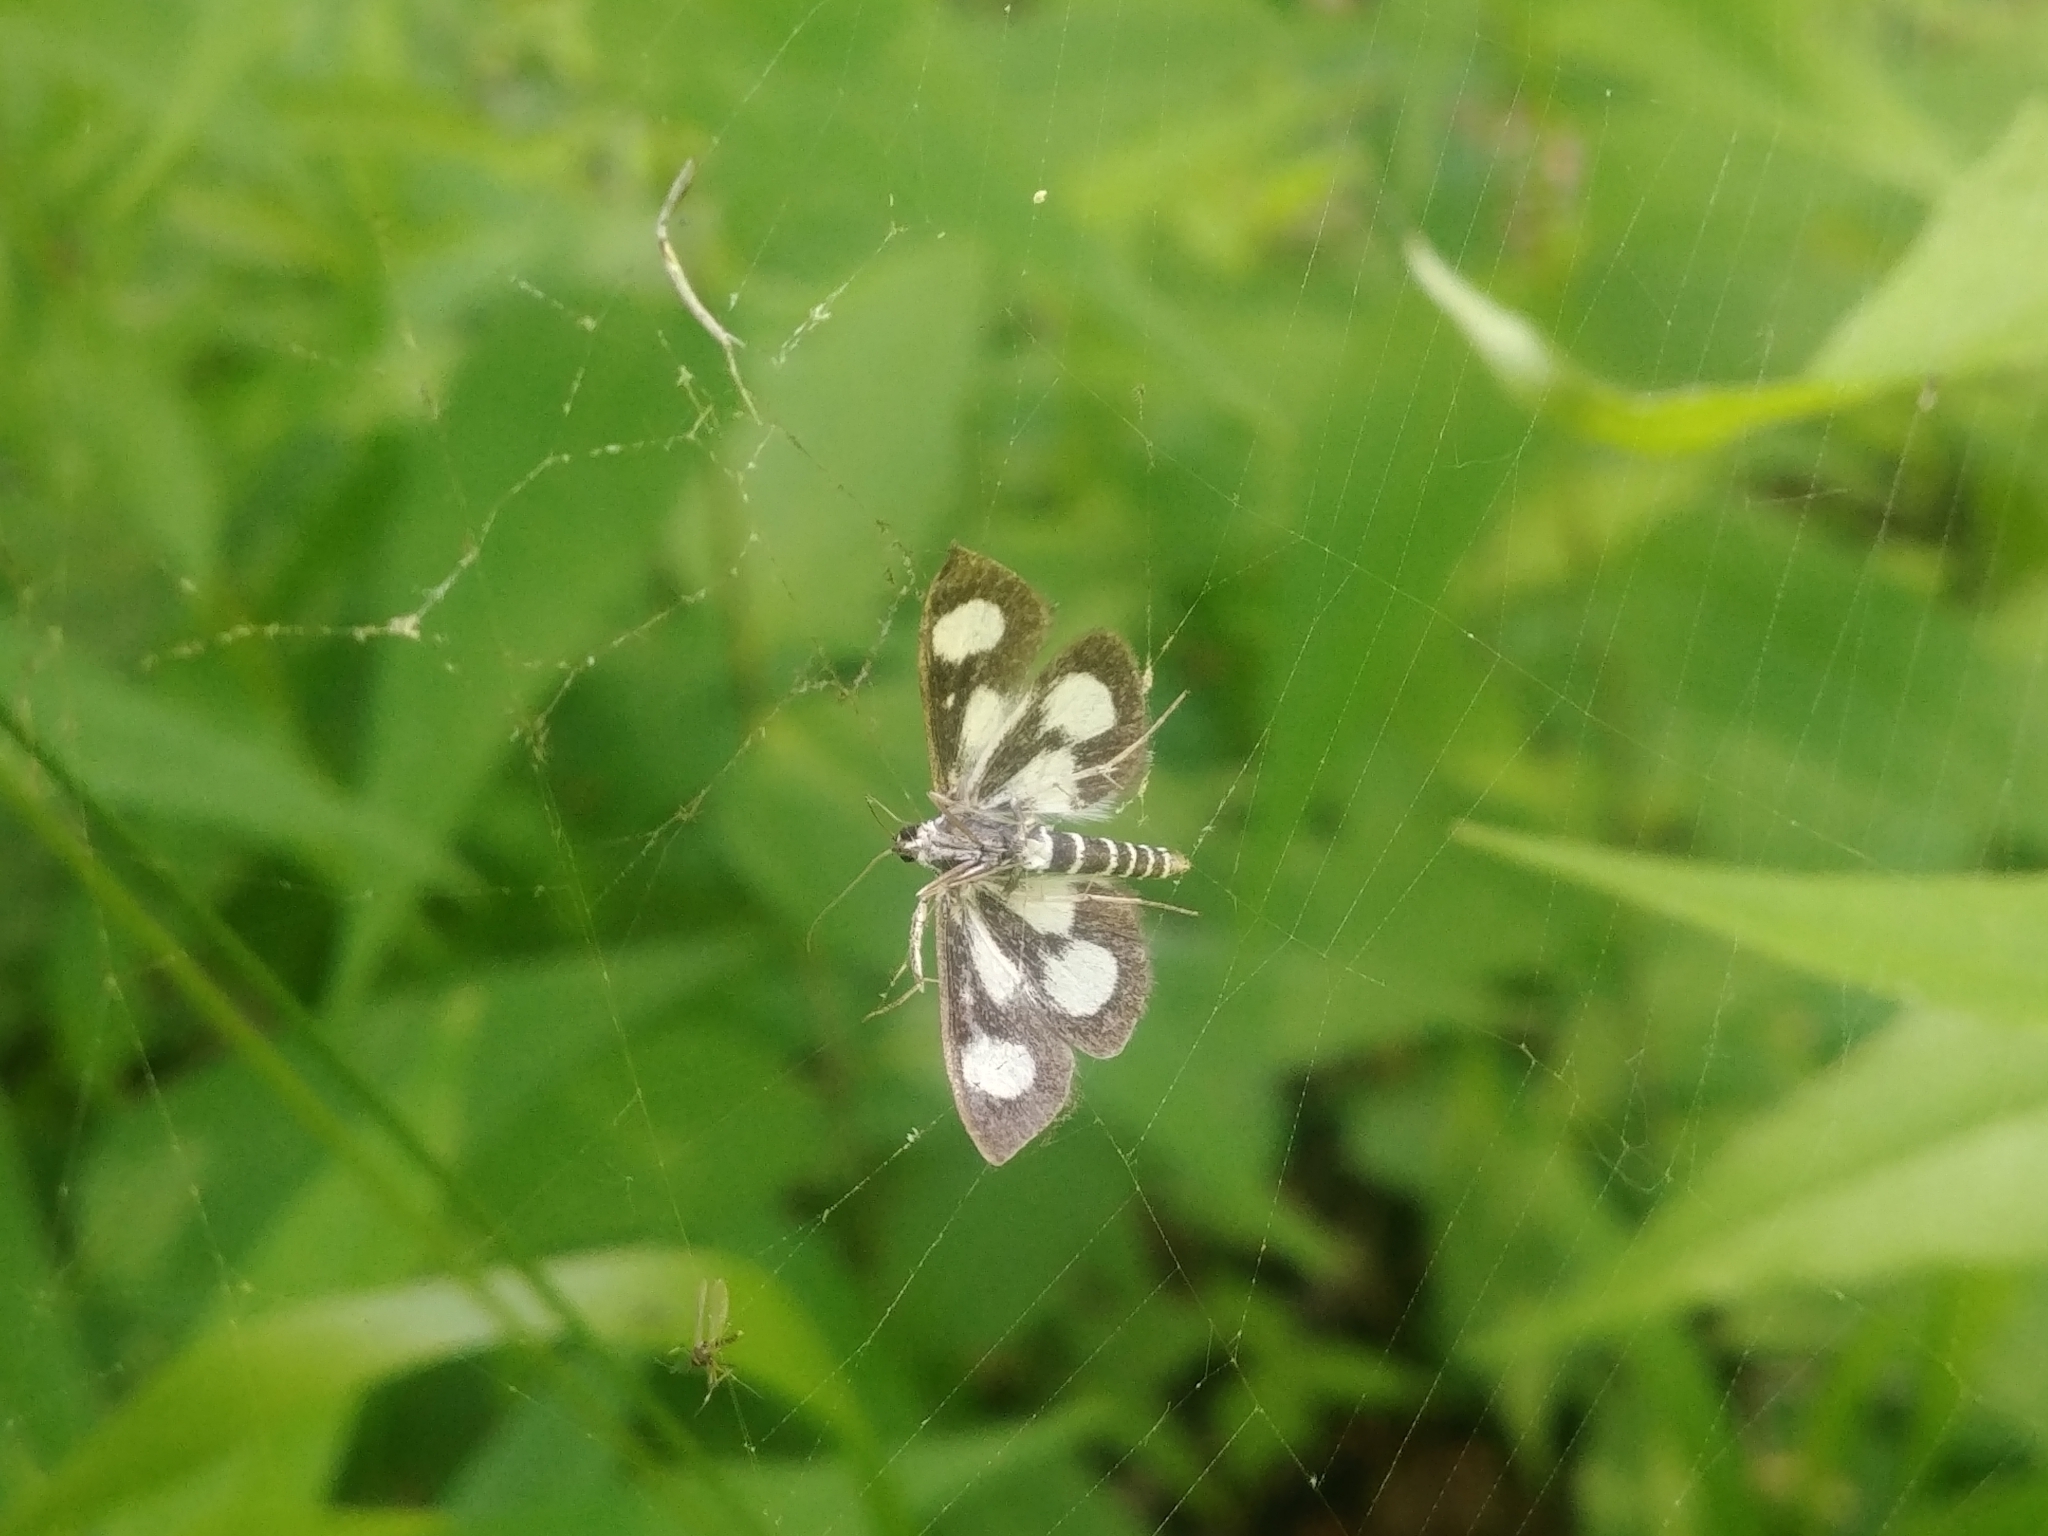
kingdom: Animalia
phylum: Arthropoda
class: Insecta
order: Lepidoptera
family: Crambidae
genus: Anania
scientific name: Anania funebris
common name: White-spotted sable moth
